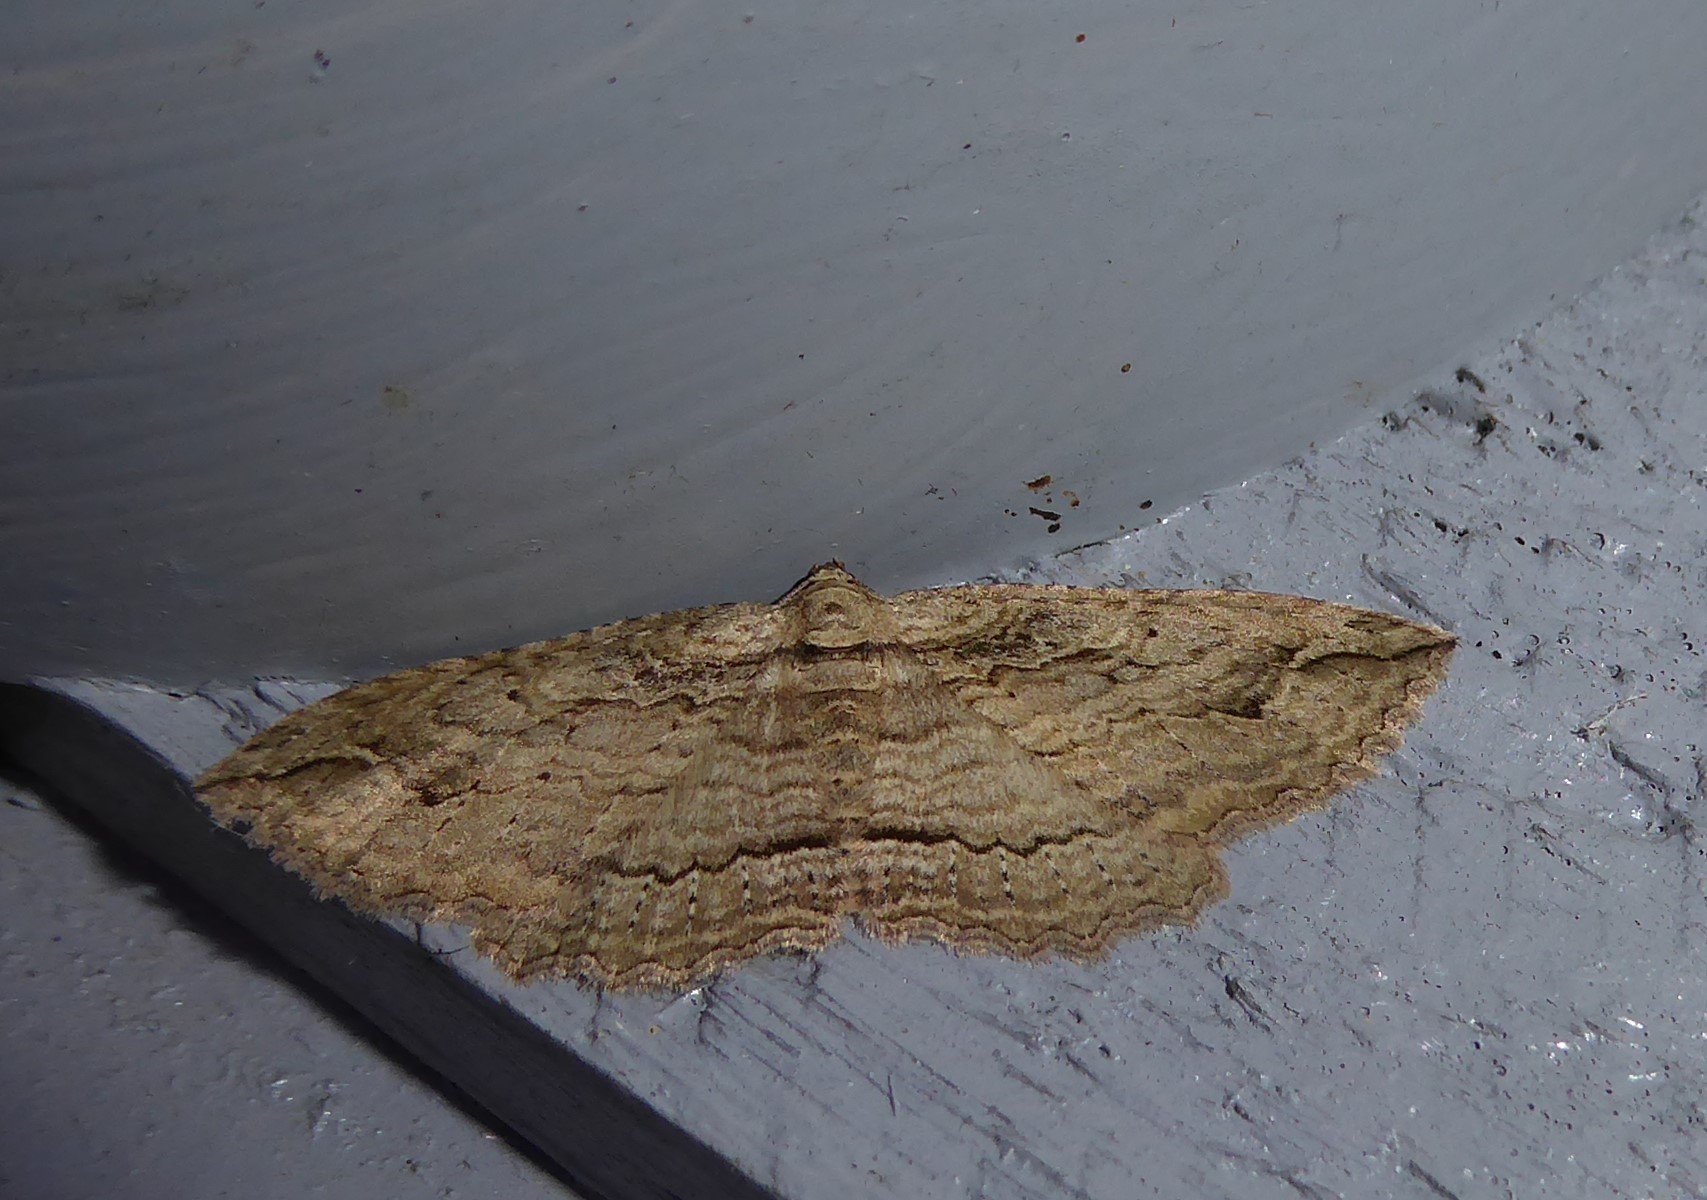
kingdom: Animalia
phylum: Arthropoda
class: Insecta
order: Lepidoptera
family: Geometridae
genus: Austrocidaria
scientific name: Austrocidaria gobiata
